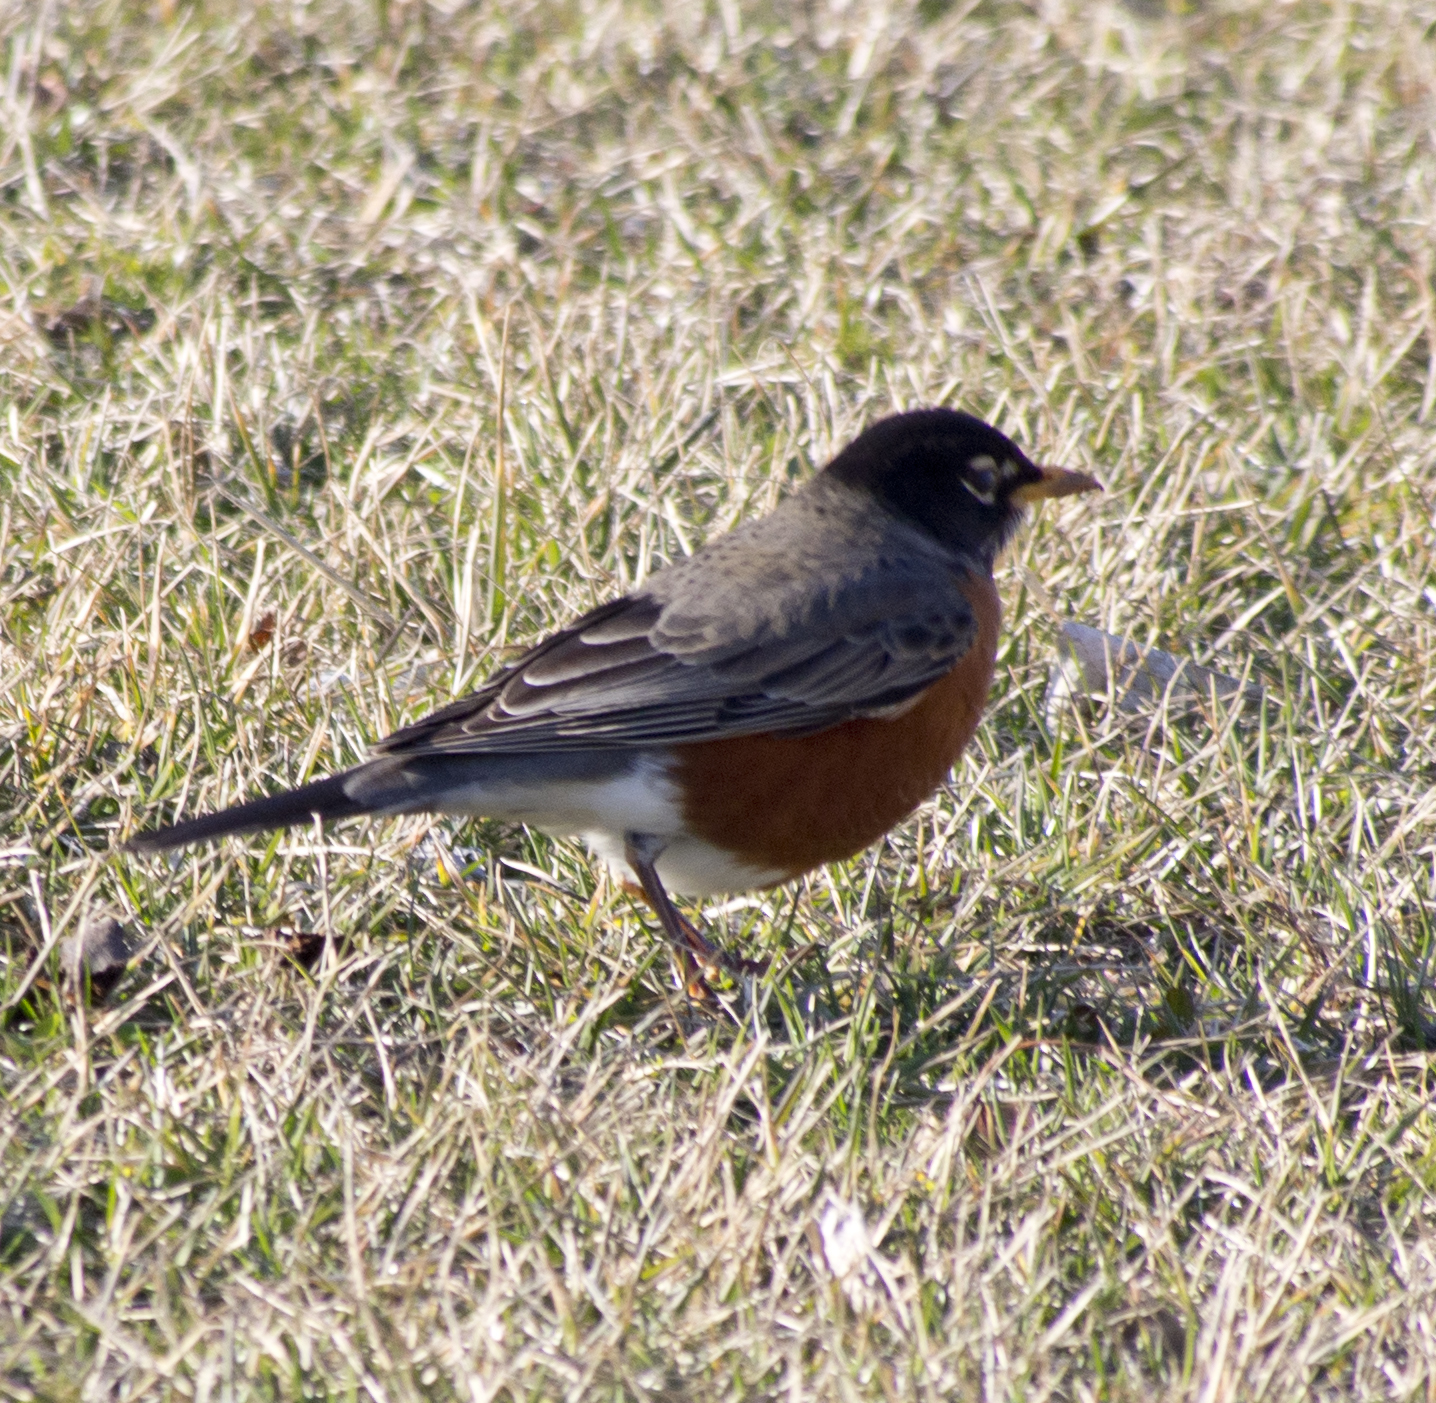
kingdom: Animalia
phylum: Chordata
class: Aves
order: Passeriformes
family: Turdidae
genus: Turdus
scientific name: Turdus migratorius
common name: American robin
